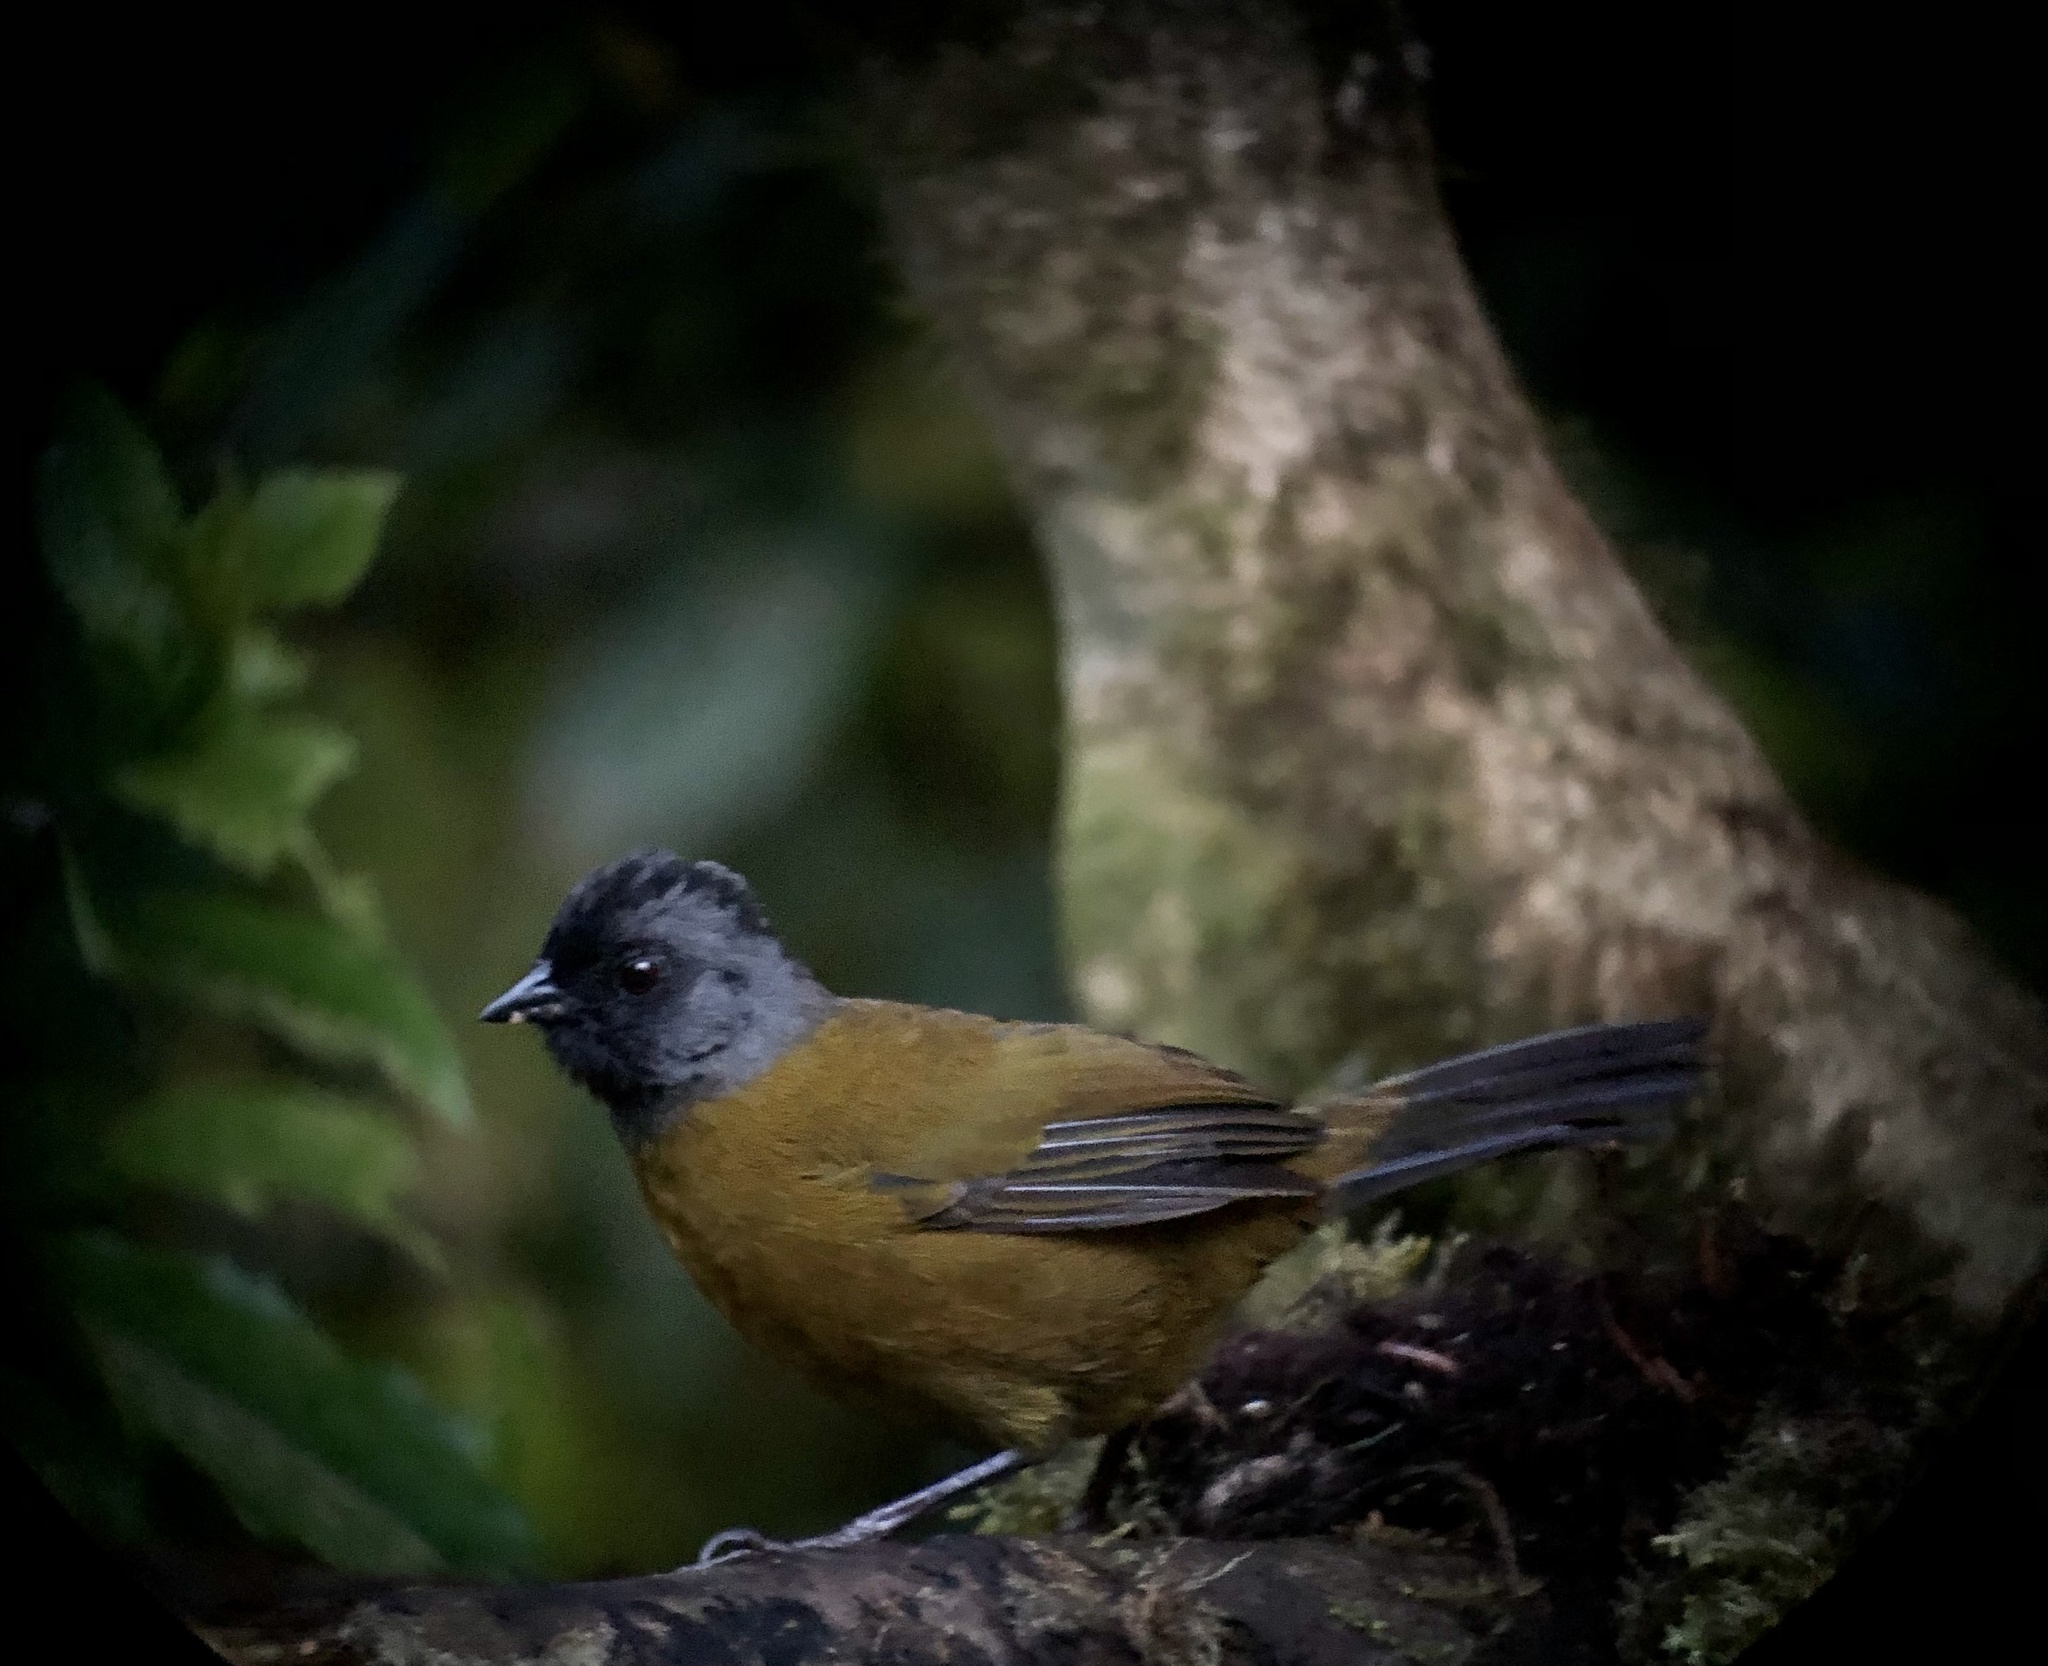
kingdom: Animalia
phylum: Chordata
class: Aves
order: Passeriformes
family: Passerellidae
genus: Pezopetes
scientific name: Pezopetes capitalis
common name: Large-footed finch
